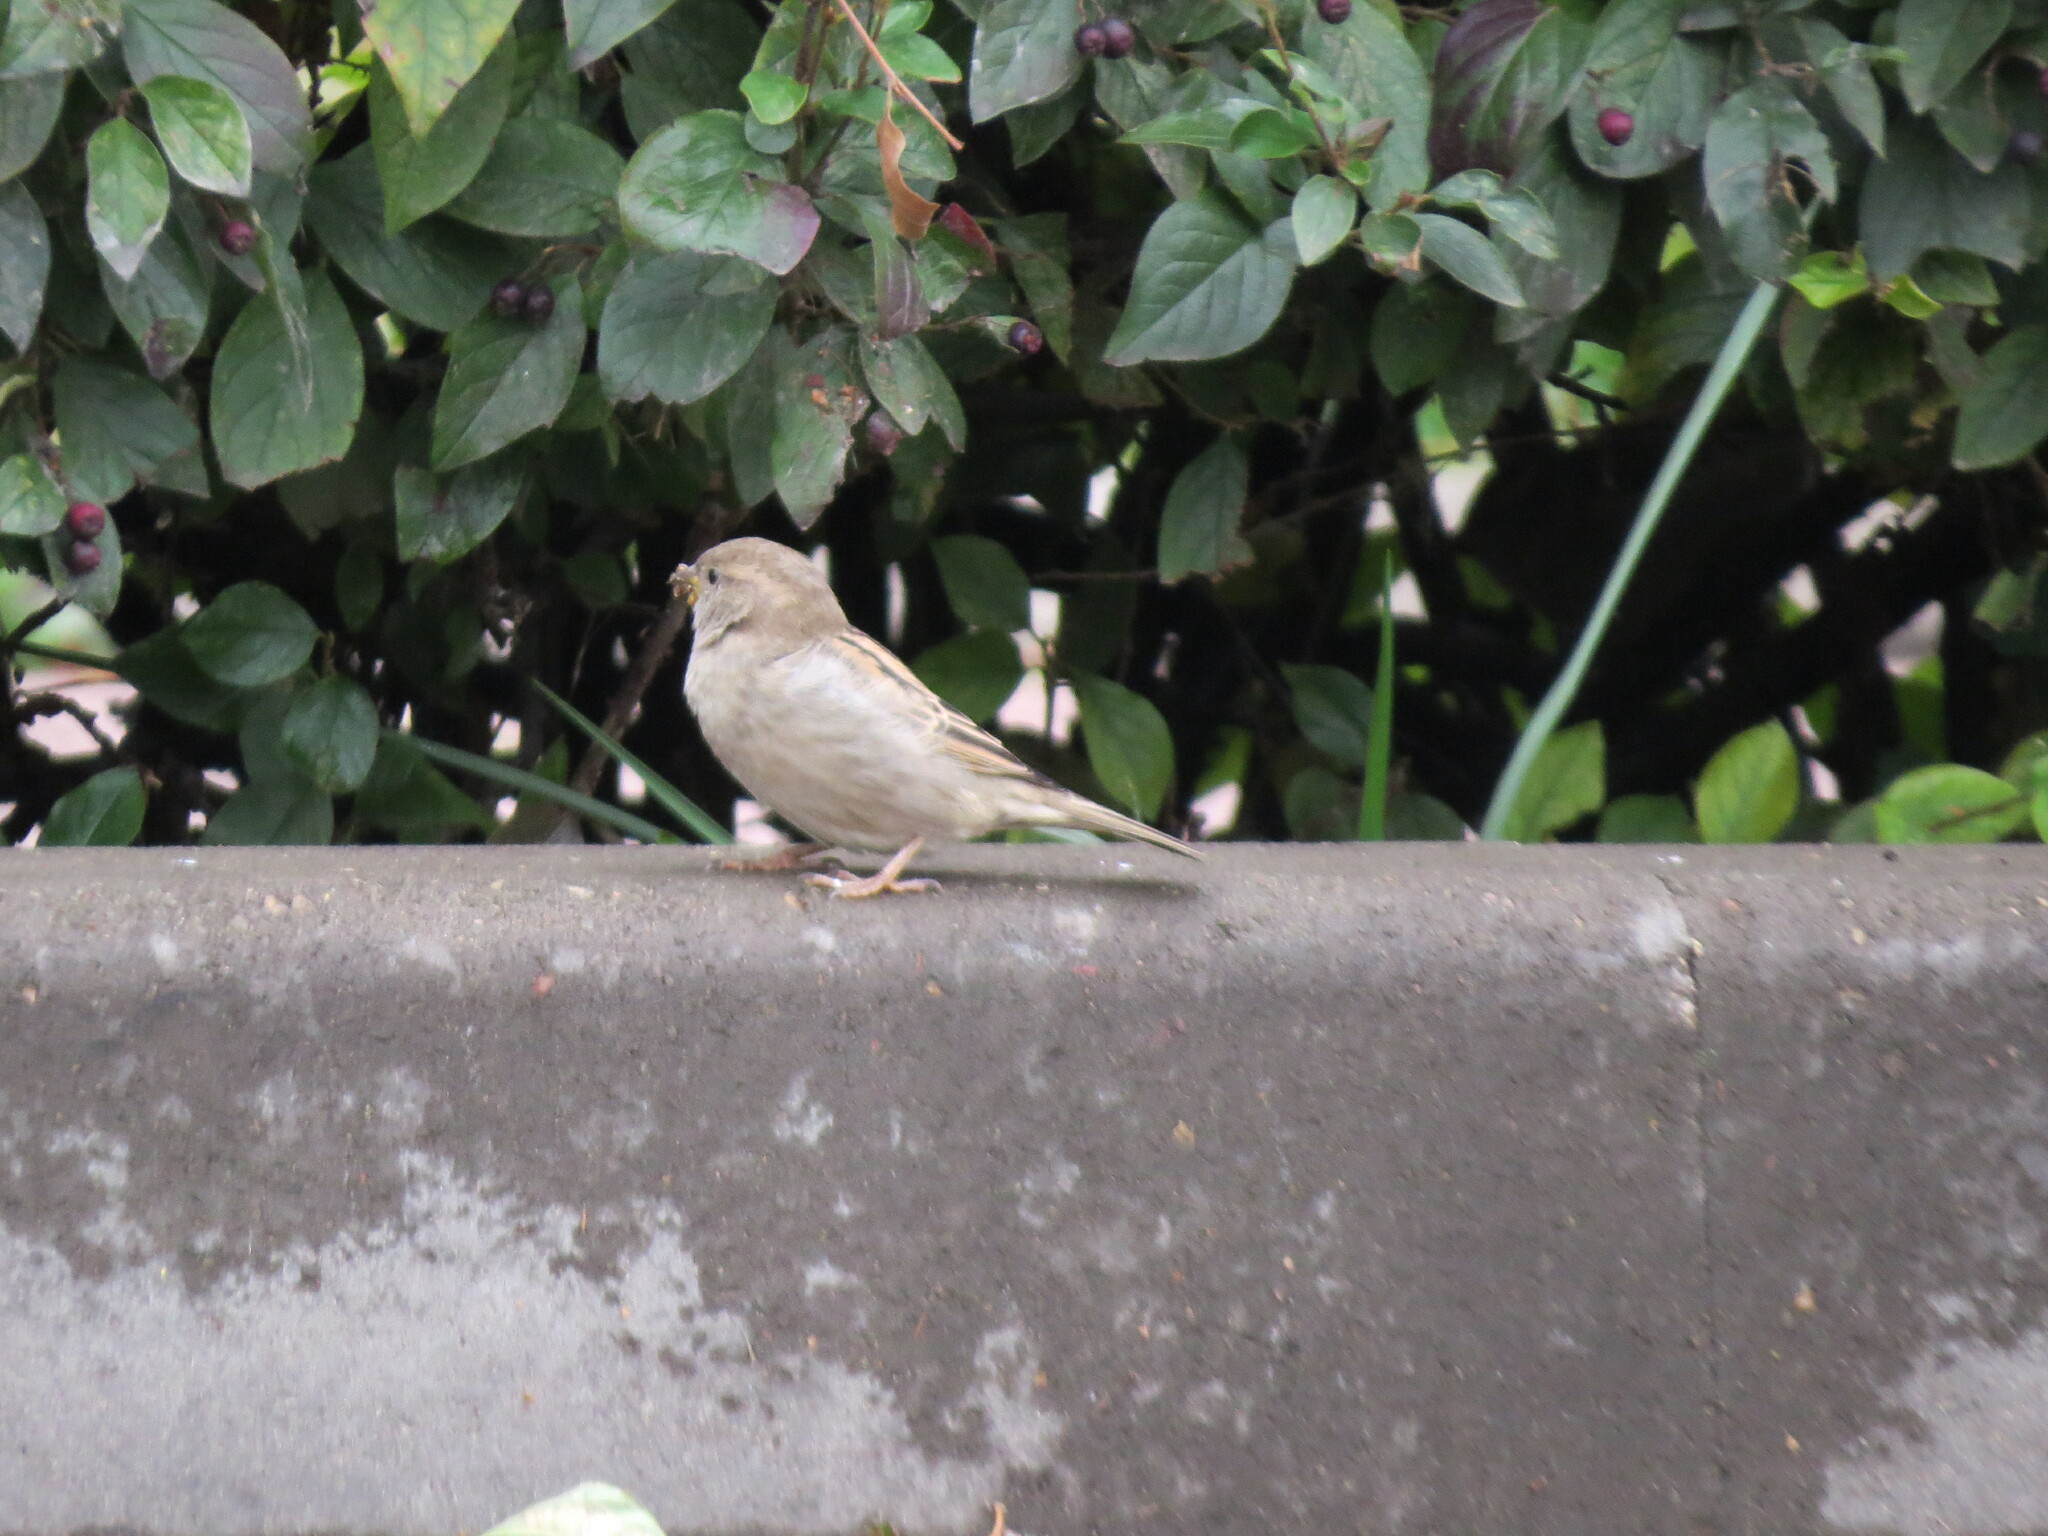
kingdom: Animalia
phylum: Chordata
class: Aves
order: Passeriformes
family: Passeridae
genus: Passer
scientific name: Passer domesticus
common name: House sparrow
